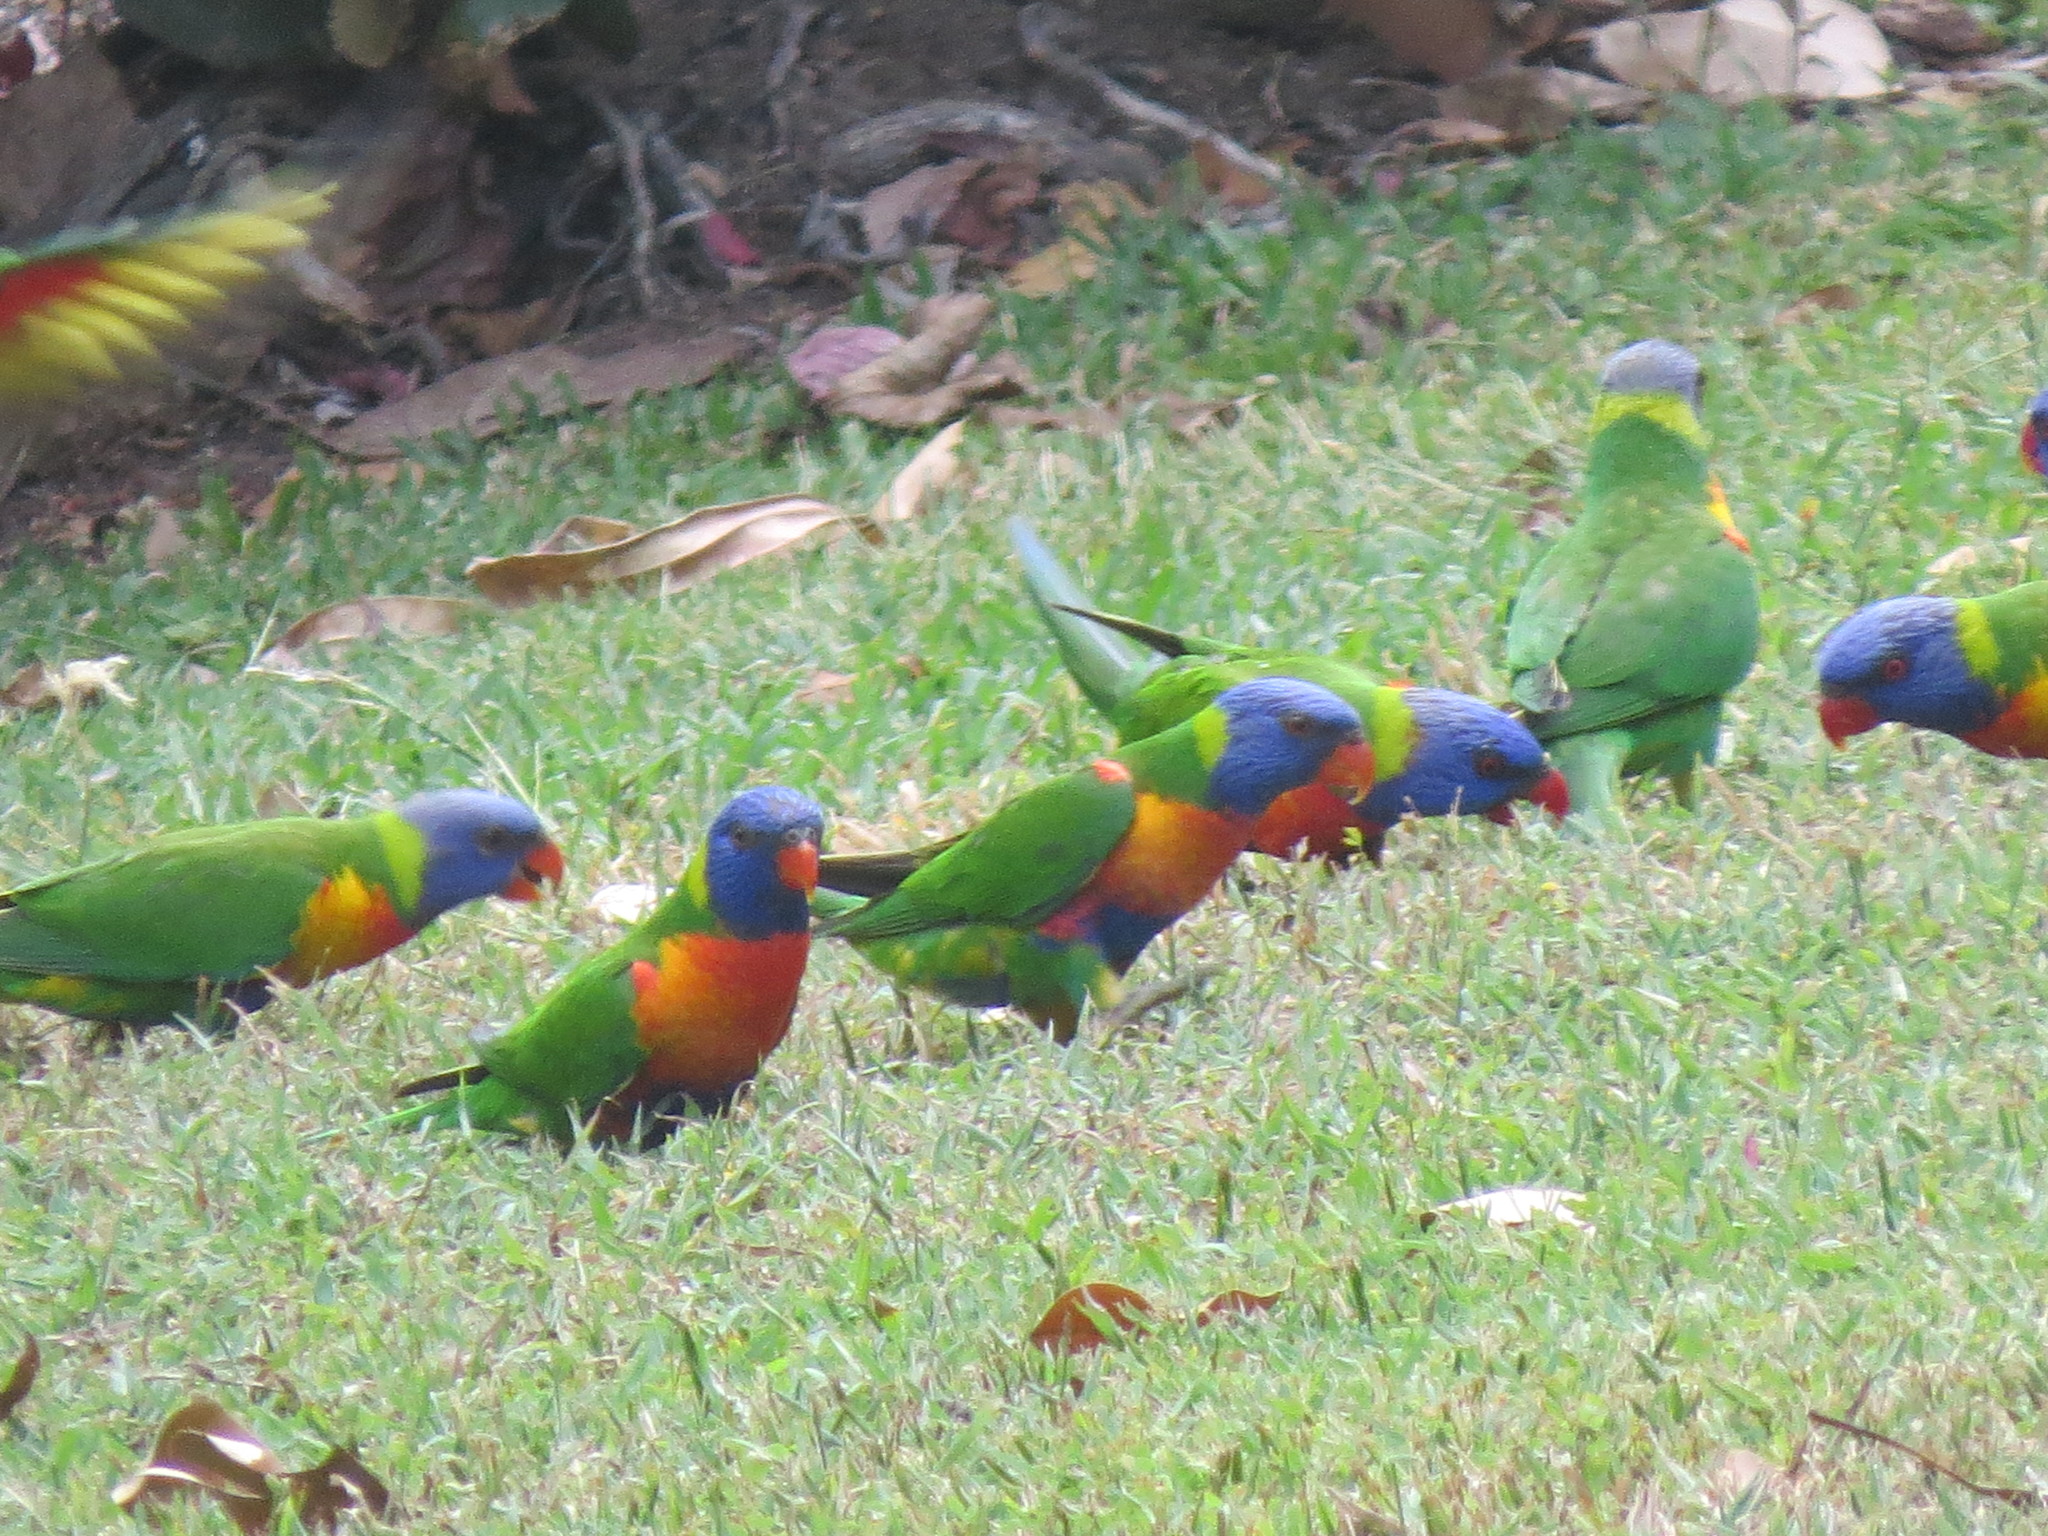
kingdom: Animalia
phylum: Chordata
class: Aves
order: Psittaciformes
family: Psittacidae
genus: Trichoglossus
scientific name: Trichoglossus haematodus
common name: Coconut lorikeet
